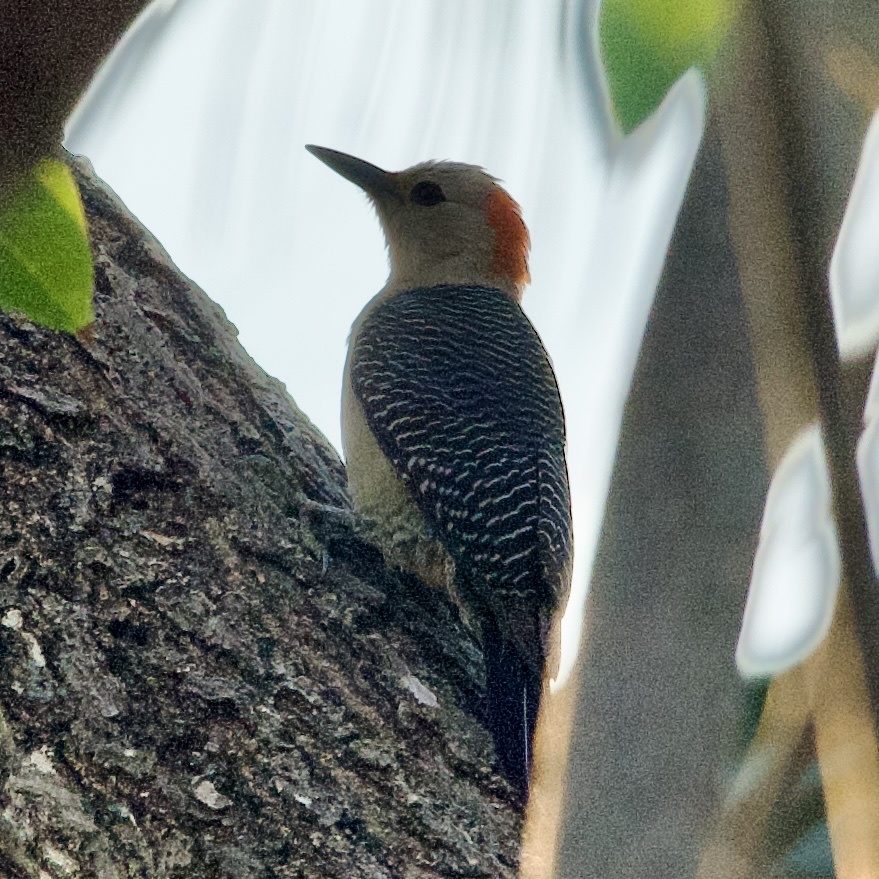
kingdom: Animalia
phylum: Chordata
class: Aves
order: Piciformes
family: Picidae
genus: Melanerpes
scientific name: Melanerpes aurifrons
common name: Golden-fronted woodpecker
